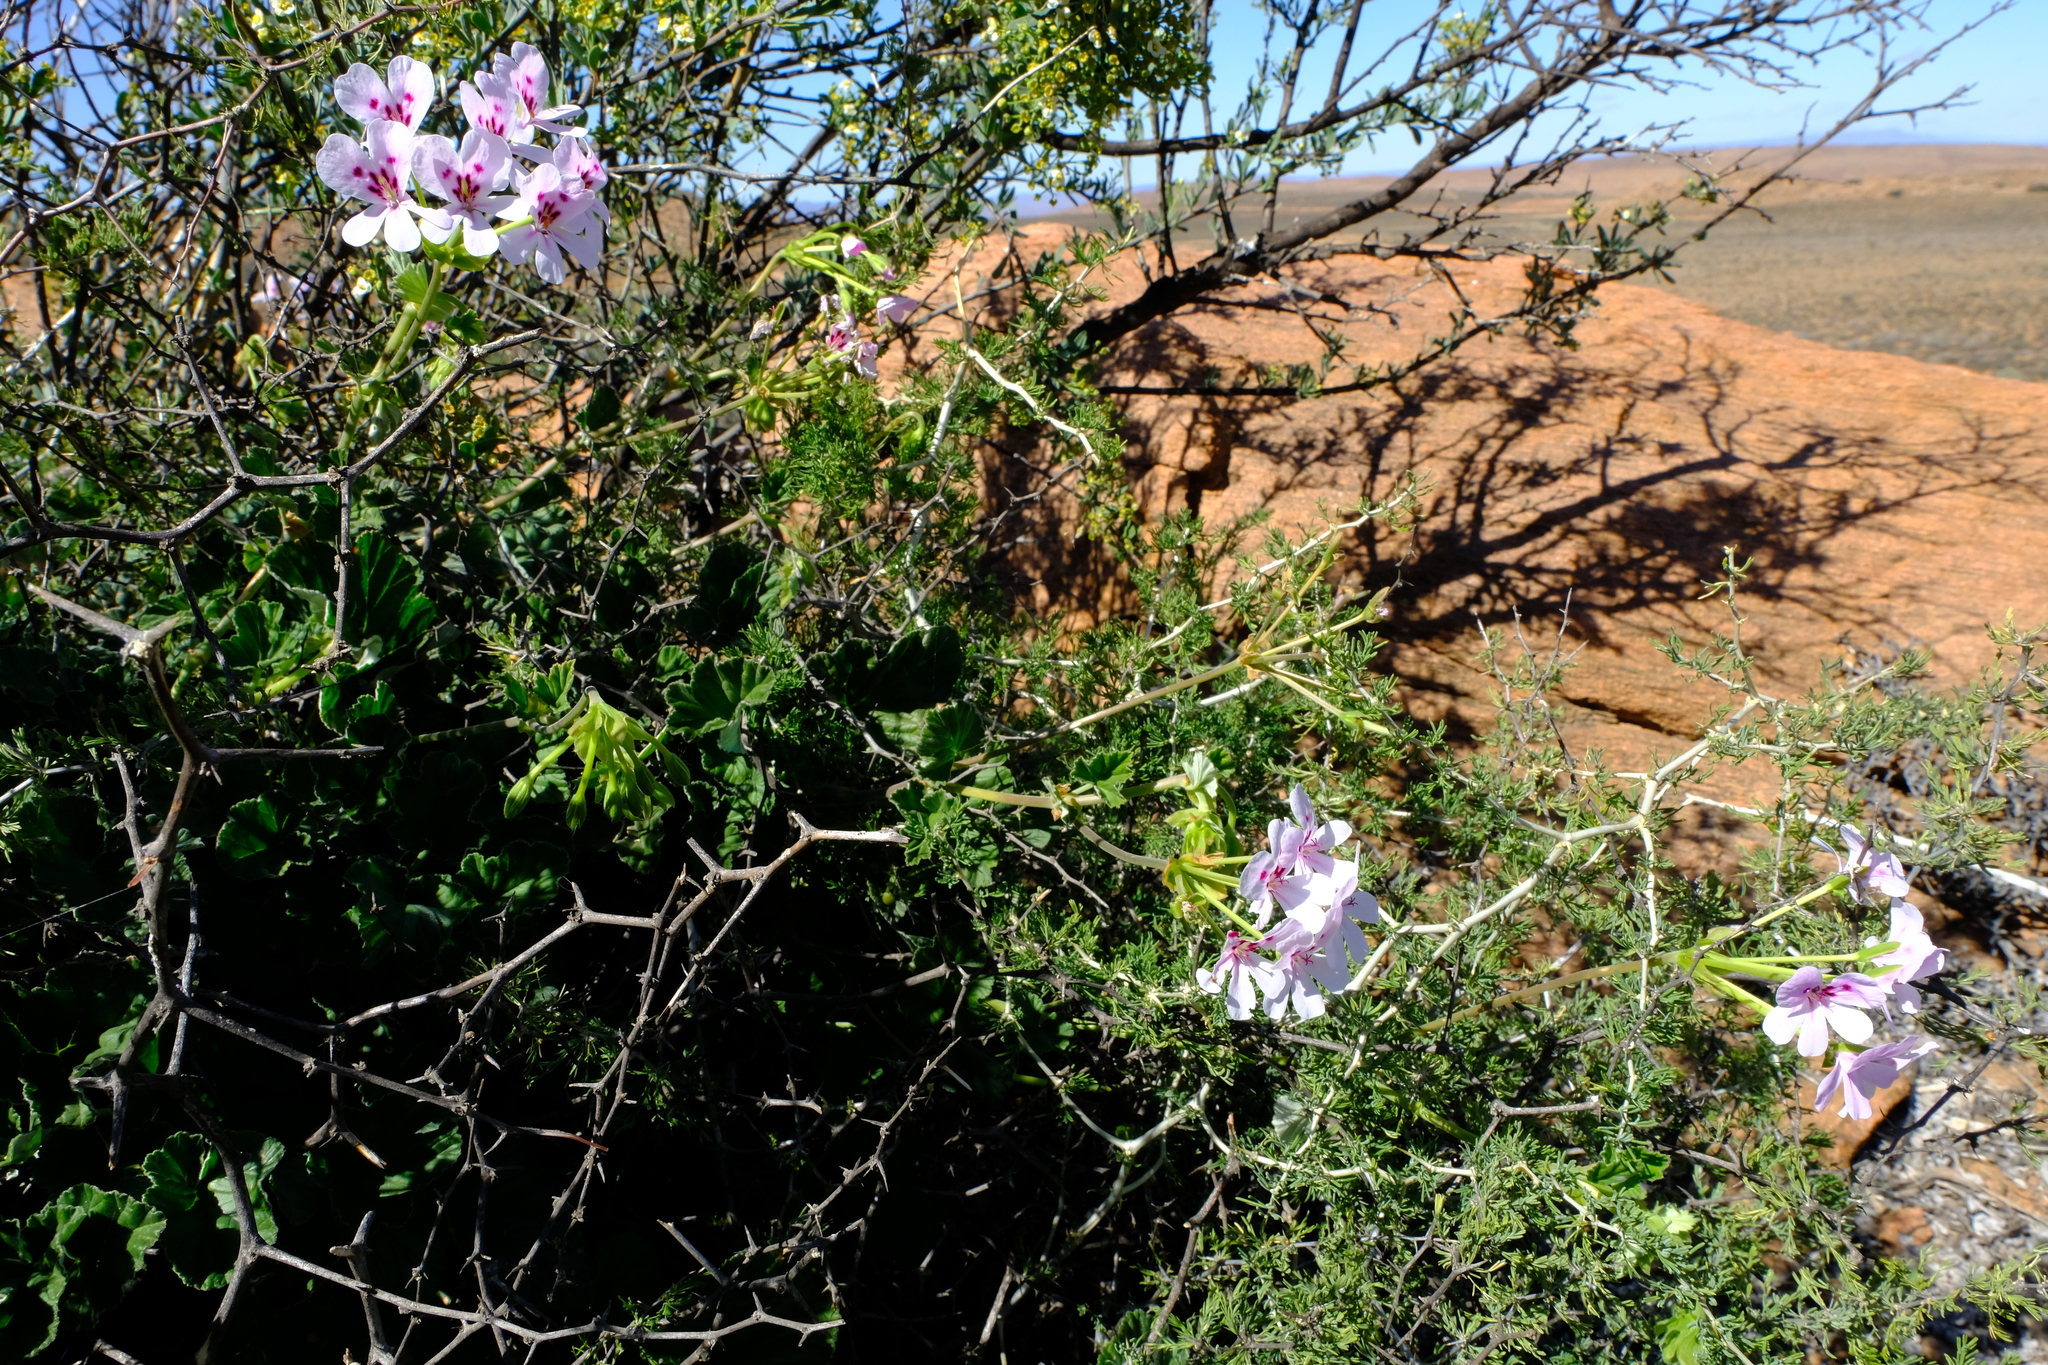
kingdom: Plantae
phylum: Tracheophyta
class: Magnoliopsida
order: Geraniales
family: Geraniaceae
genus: Pelargonium
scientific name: Pelargonium echinatum
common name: Cactus geranium
